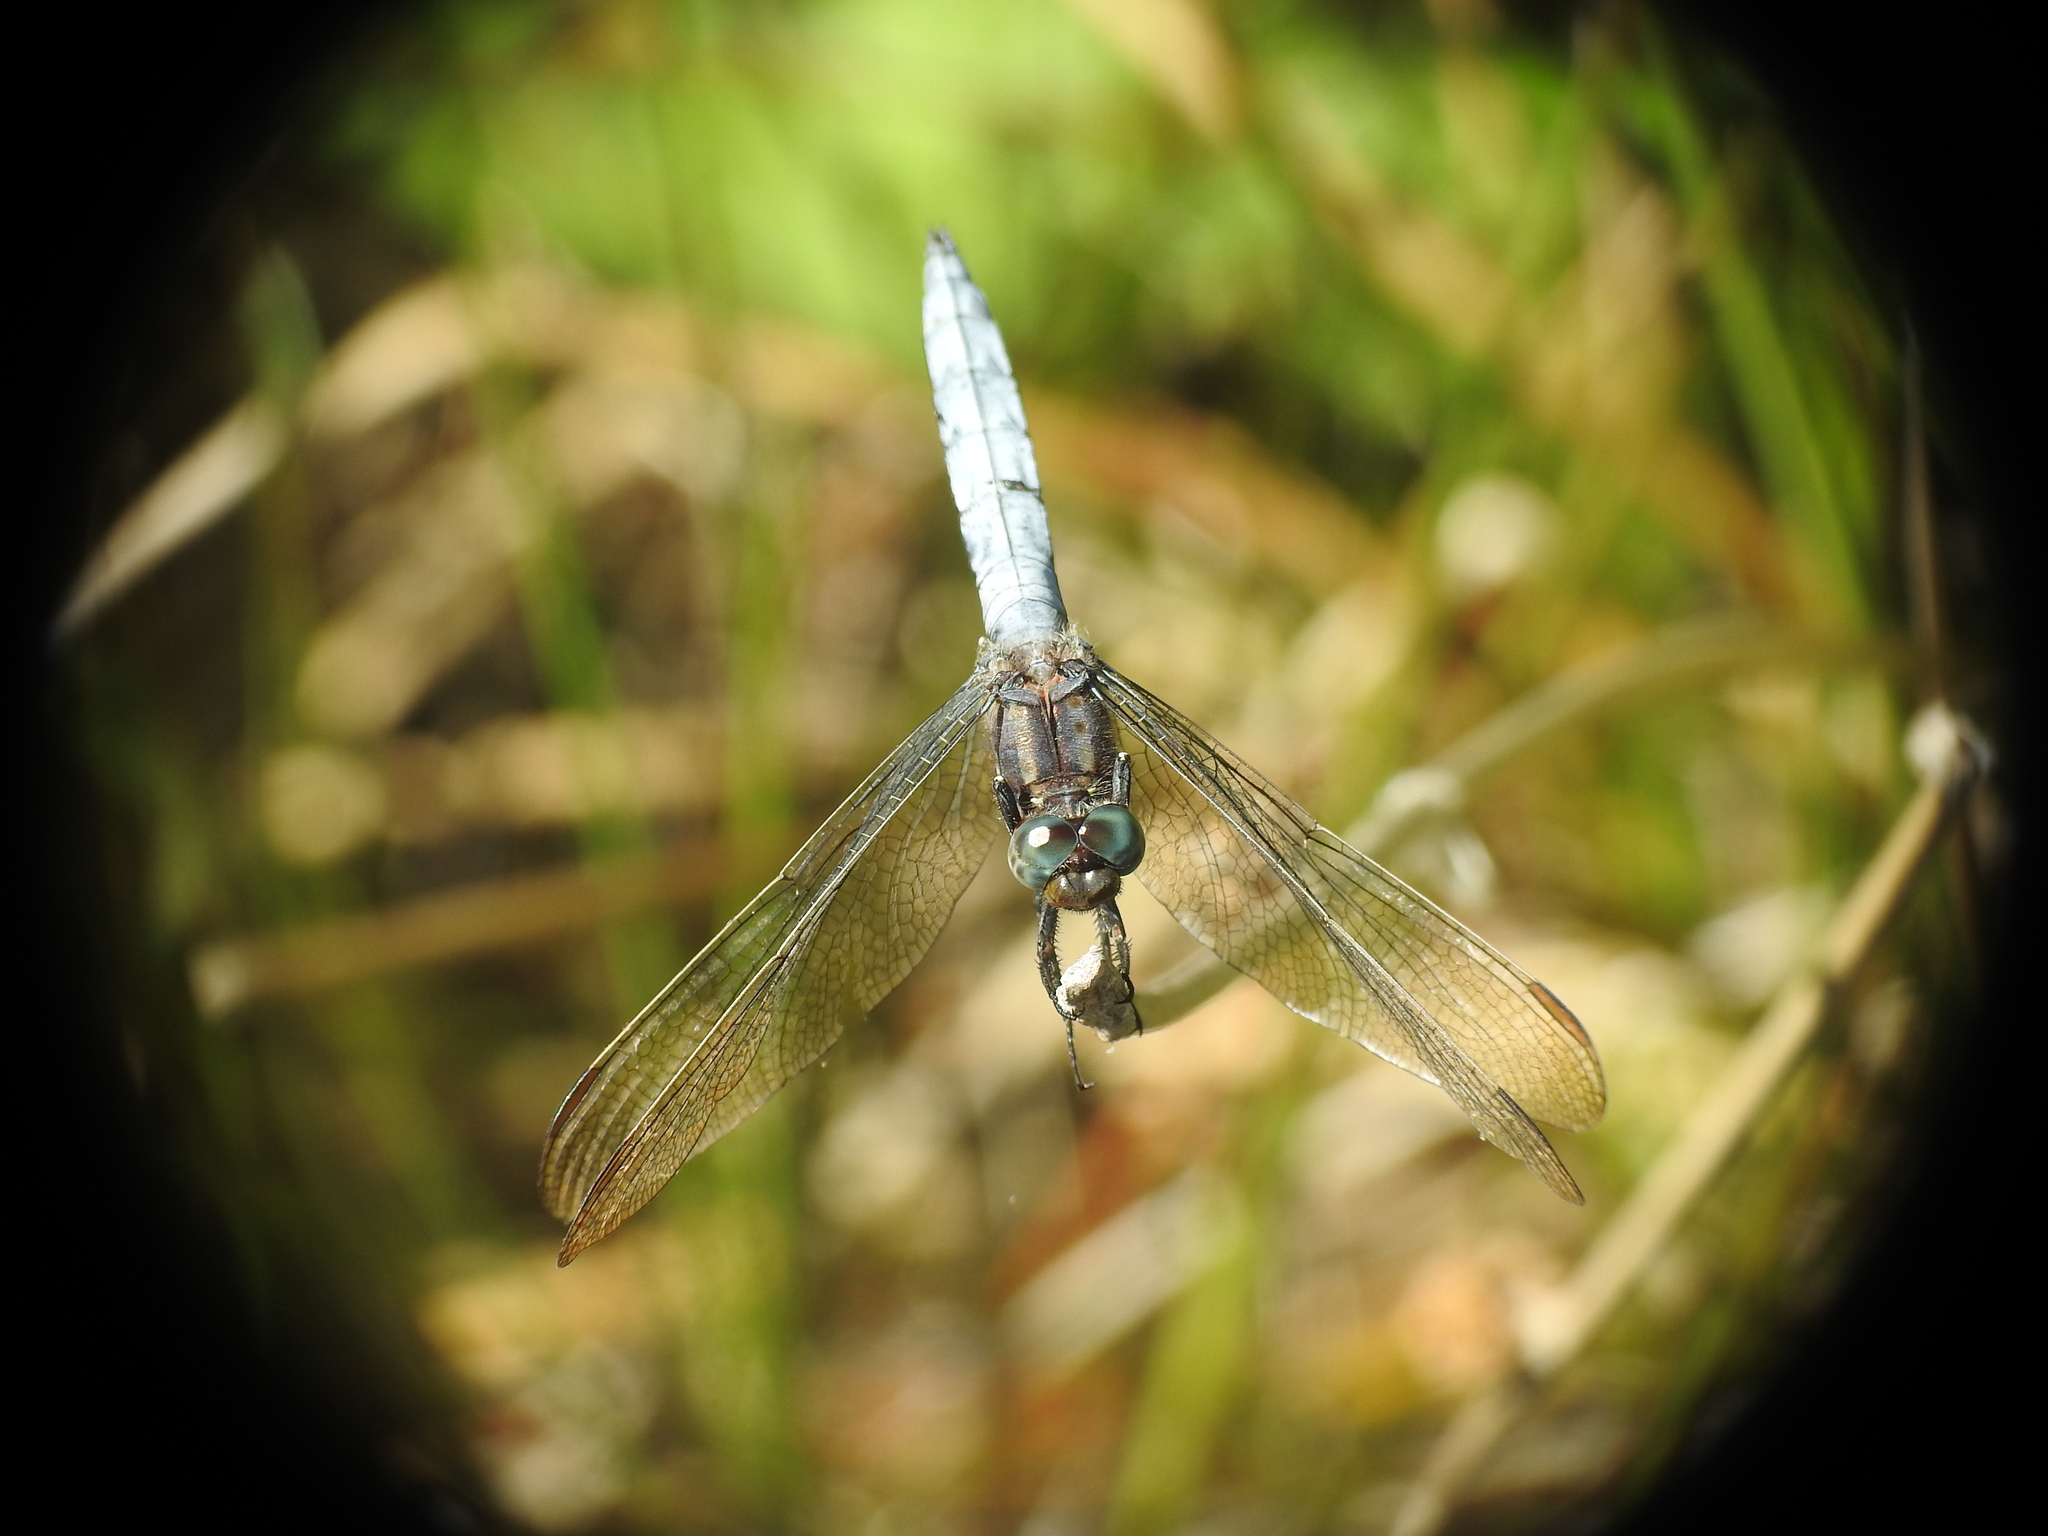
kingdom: Animalia
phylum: Arthropoda
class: Insecta
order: Odonata
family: Libellulidae
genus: Orthetrum
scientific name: Orthetrum coerulescens
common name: Keeled skimmer
